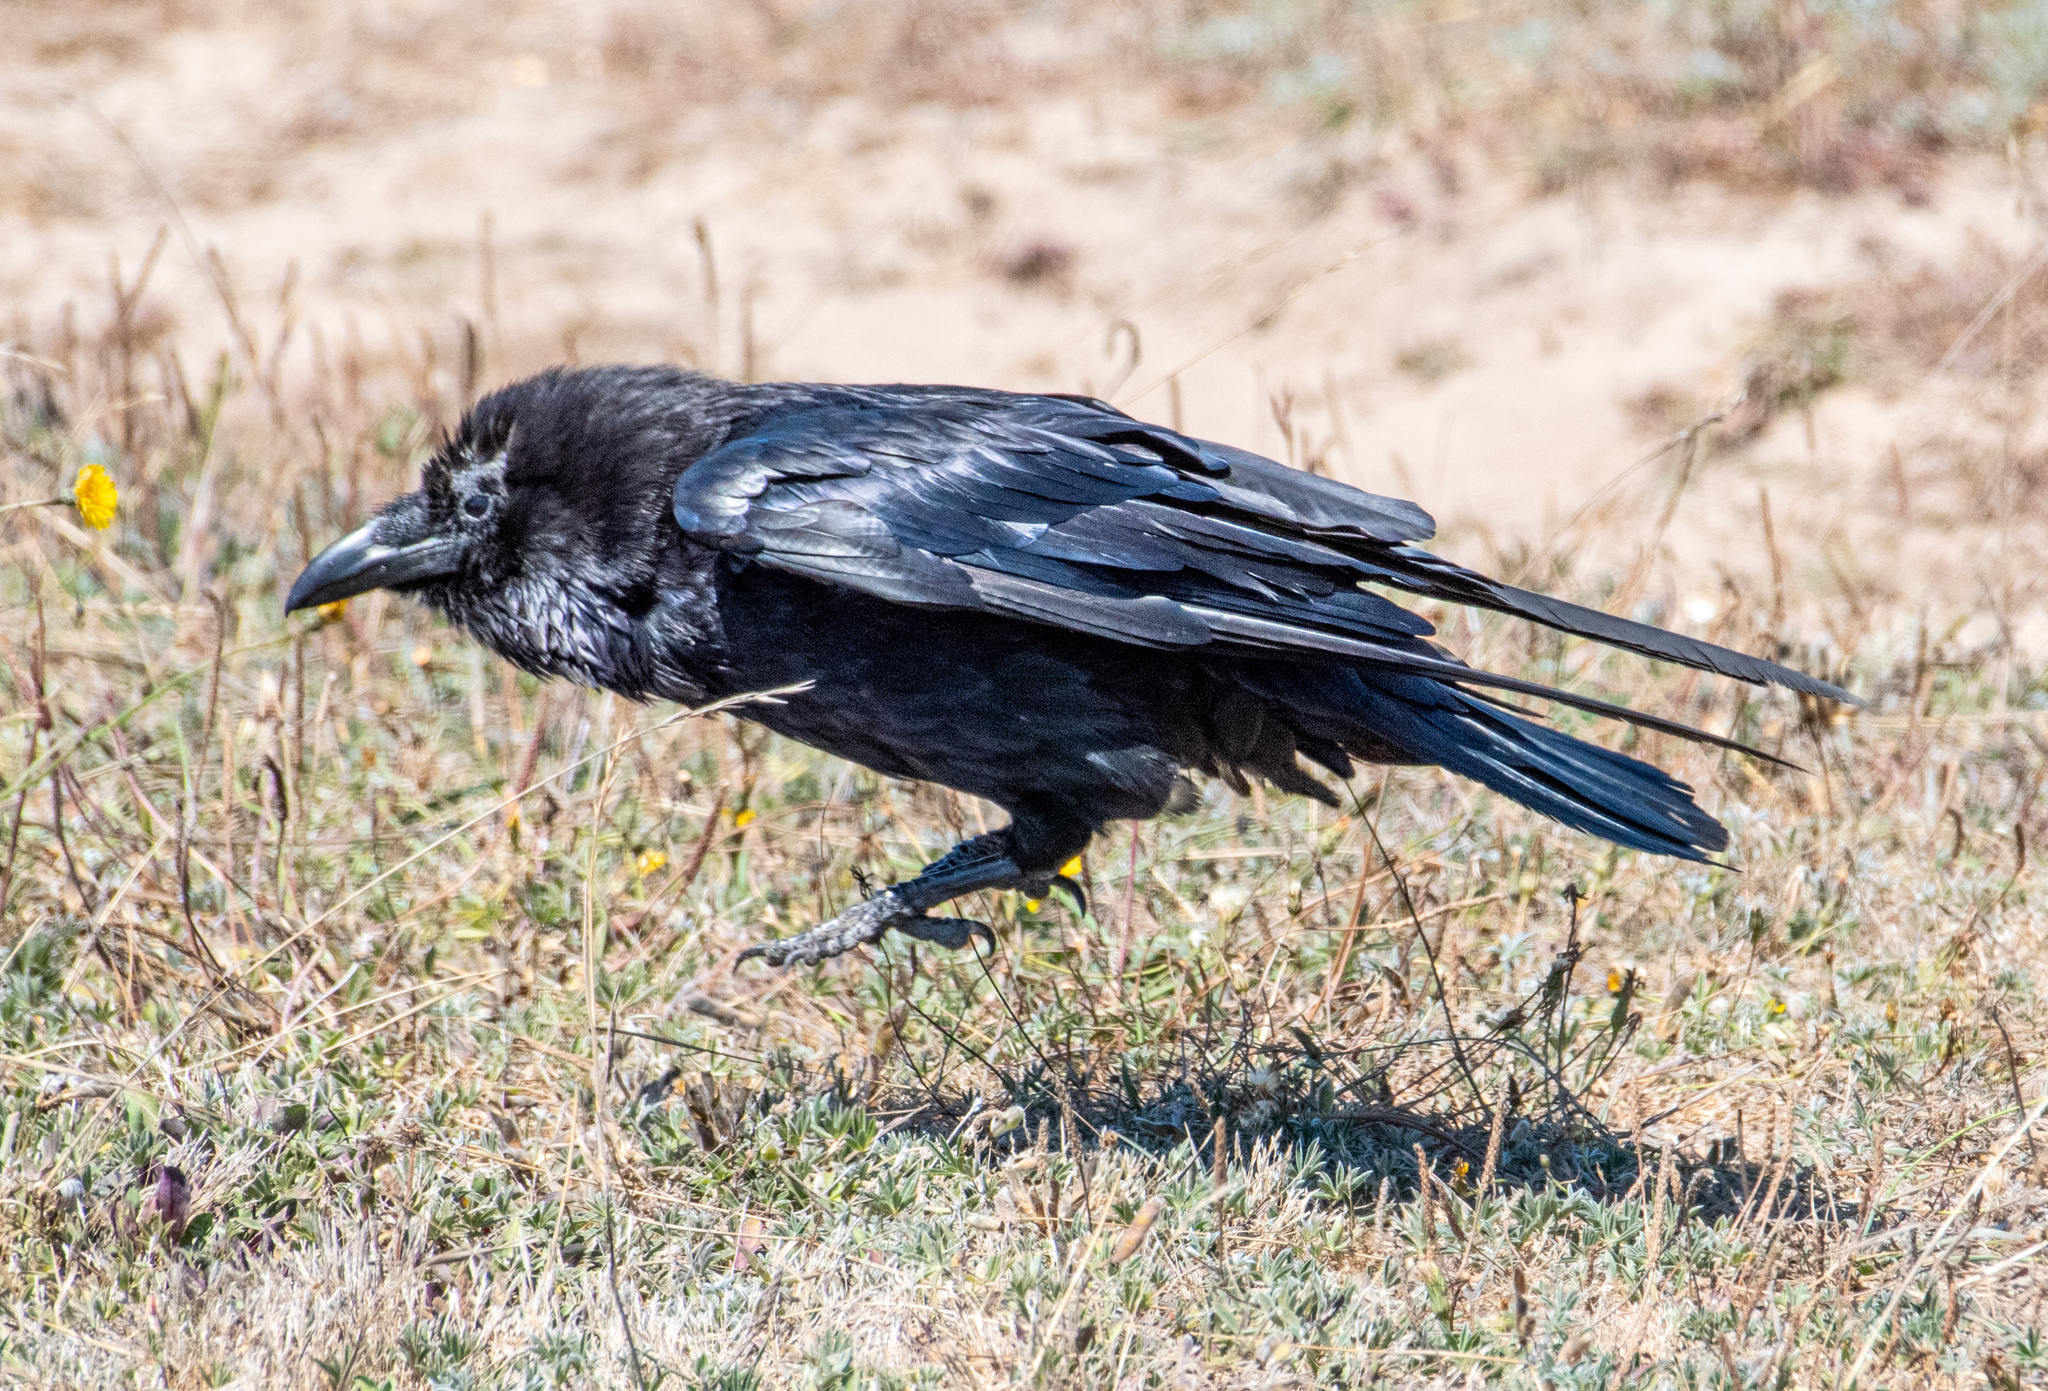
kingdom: Animalia
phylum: Chordata
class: Aves
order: Passeriformes
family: Corvidae
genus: Corvus
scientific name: Corvus corax
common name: Common raven
